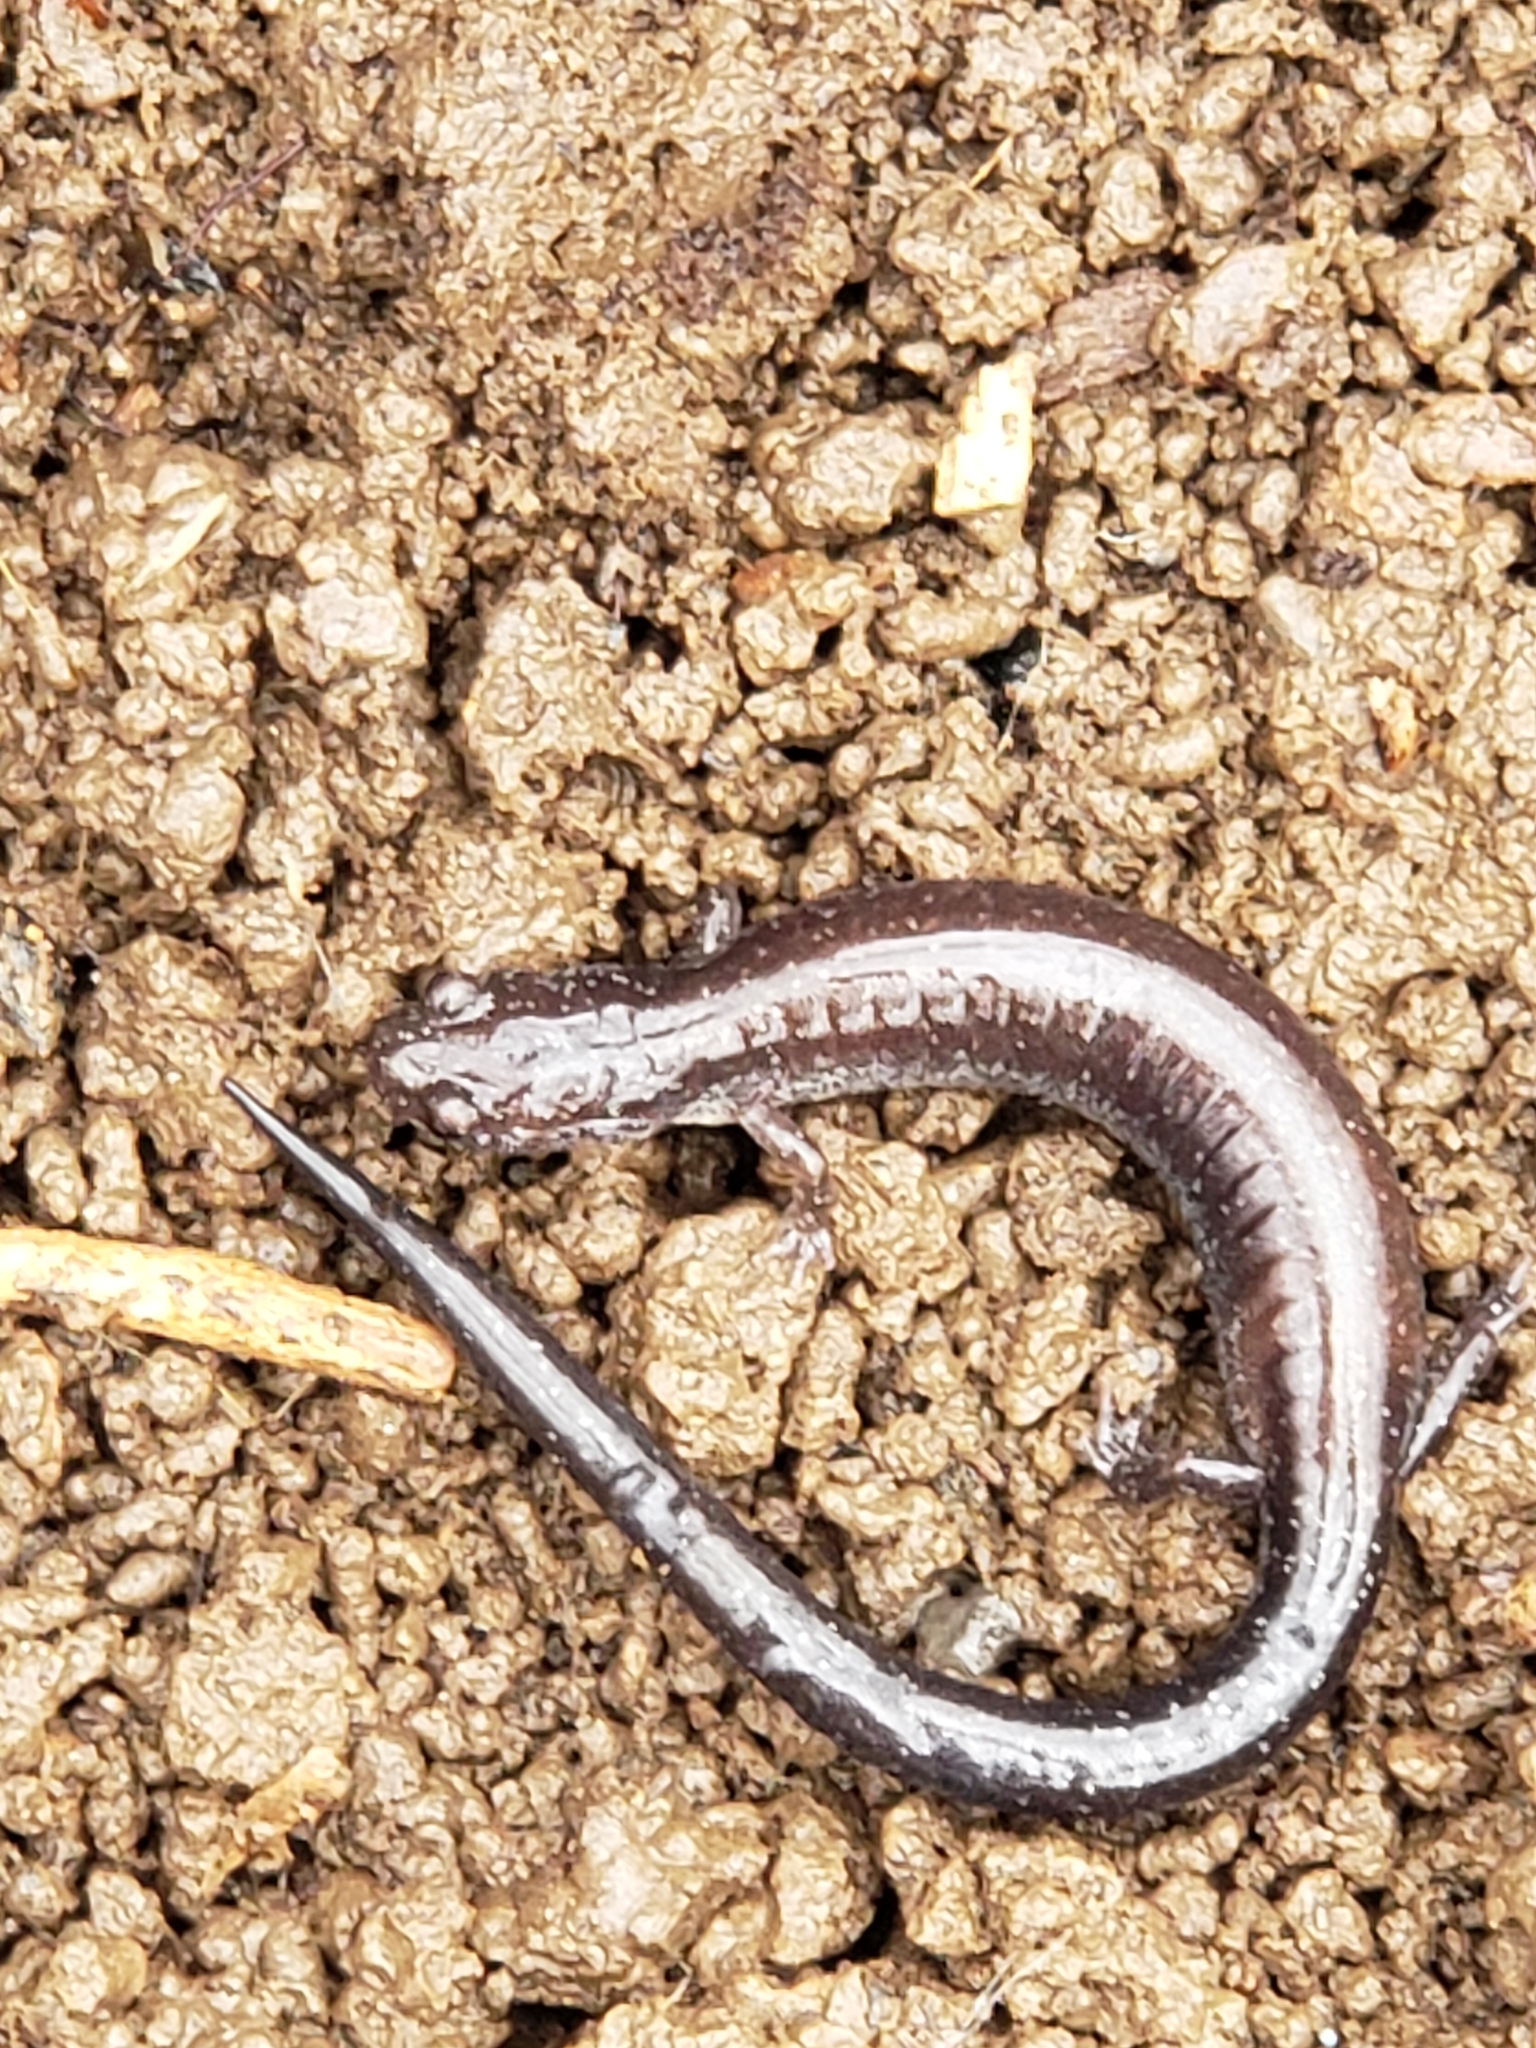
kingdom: Animalia
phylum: Chordata
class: Amphibia
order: Caudata
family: Plethodontidae
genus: Plethodon
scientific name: Plethodon cinereus
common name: Redback salamander
